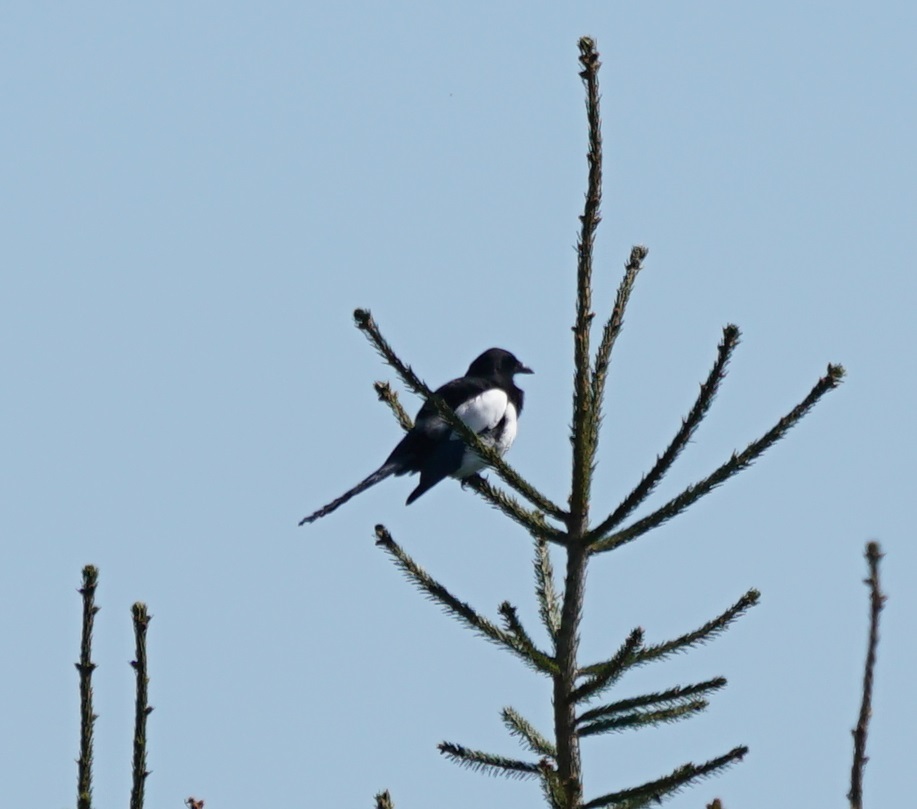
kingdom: Animalia
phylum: Chordata
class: Aves
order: Passeriformes
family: Corvidae
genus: Pica
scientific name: Pica pica
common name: Eurasian magpie
